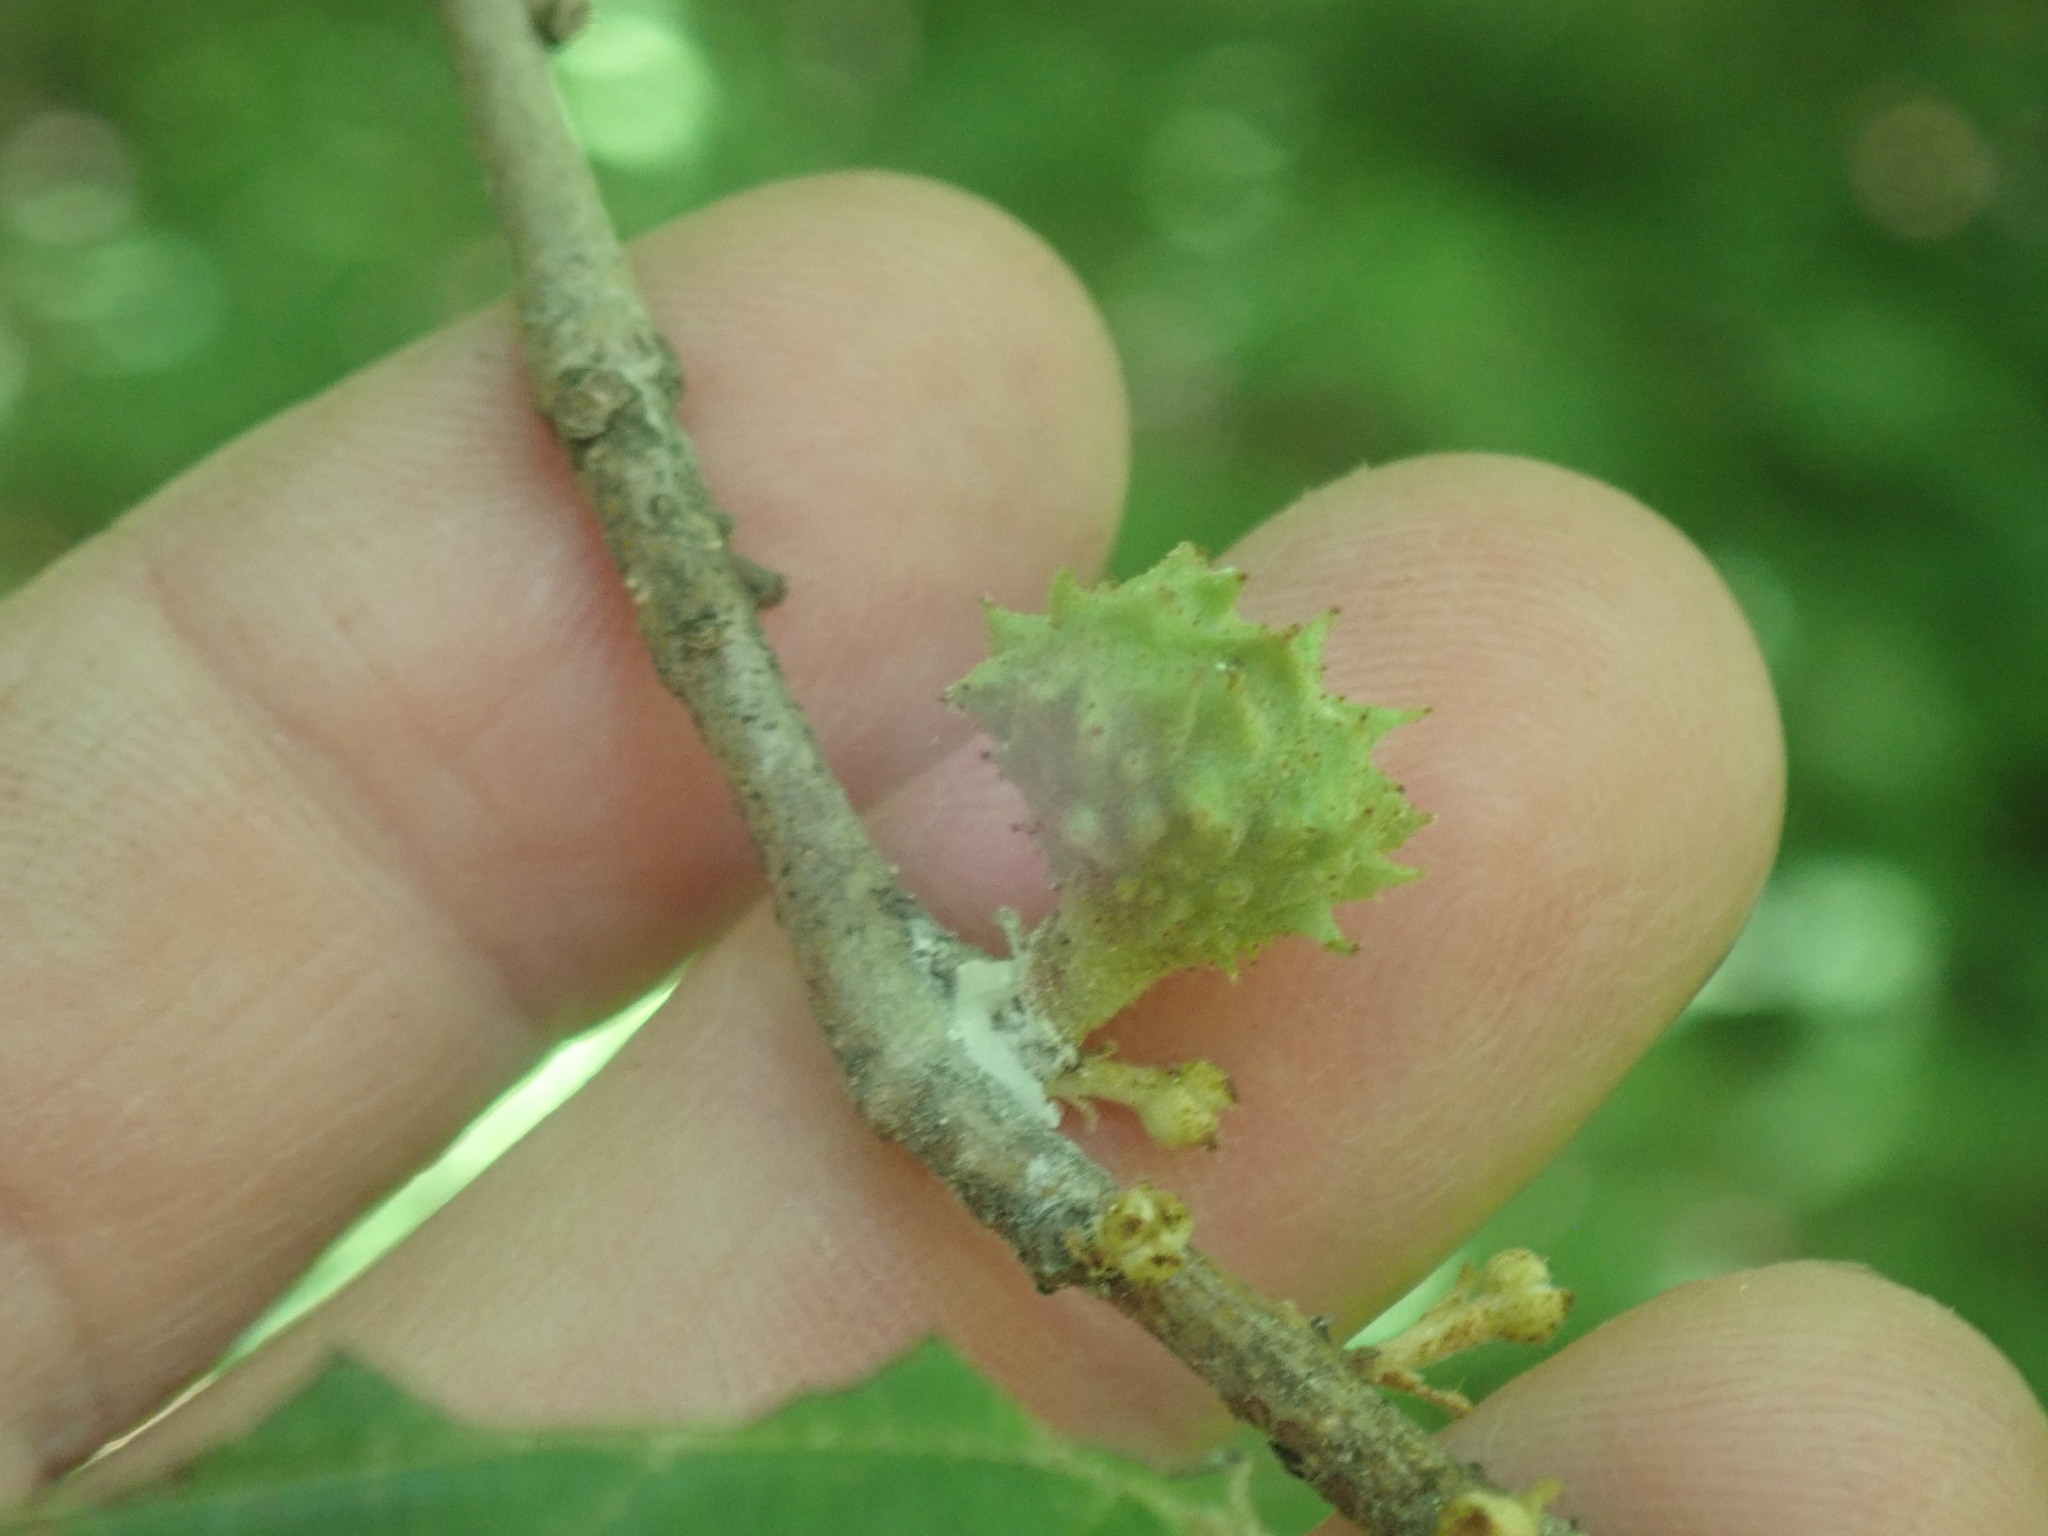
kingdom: Animalia
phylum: Arthropoda
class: Insecta
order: Hemiptera
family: Aphididae
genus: Hamamelistes
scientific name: Hamamelistes spinosus
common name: Witch hazel gall aphid
